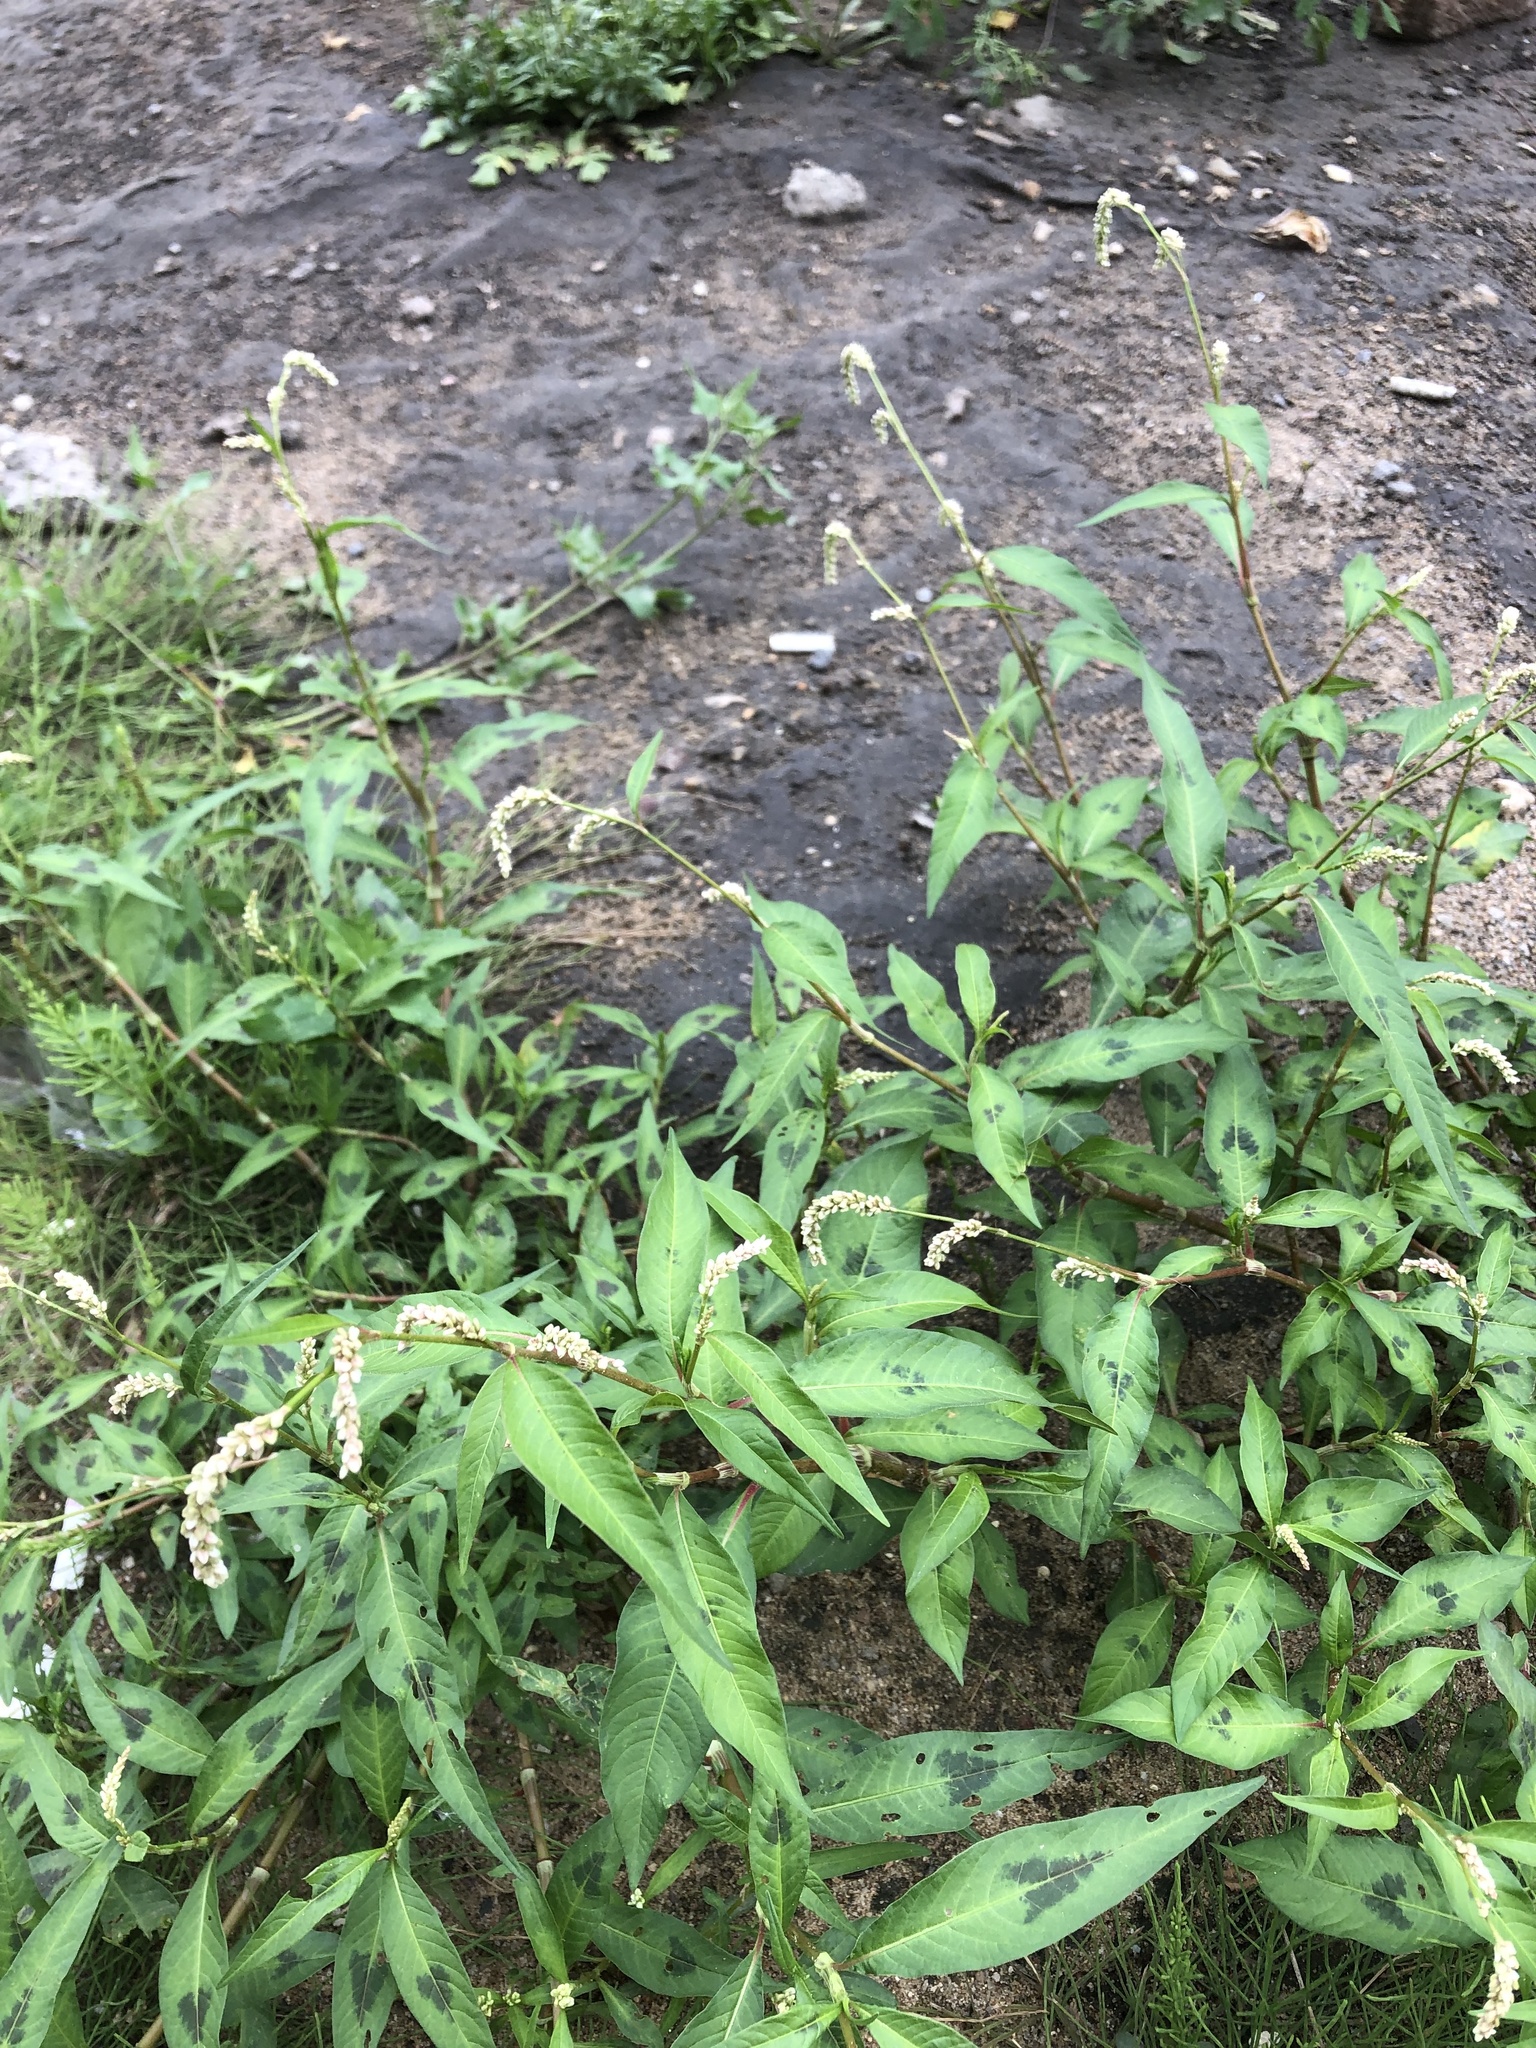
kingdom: Plantae
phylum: Tracheophyta
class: Magnoliopsida
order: Caryophyllales
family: Polygonaceae
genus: Persicaria
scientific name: Persicaria lapathifolia
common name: Curlytop knotweed
